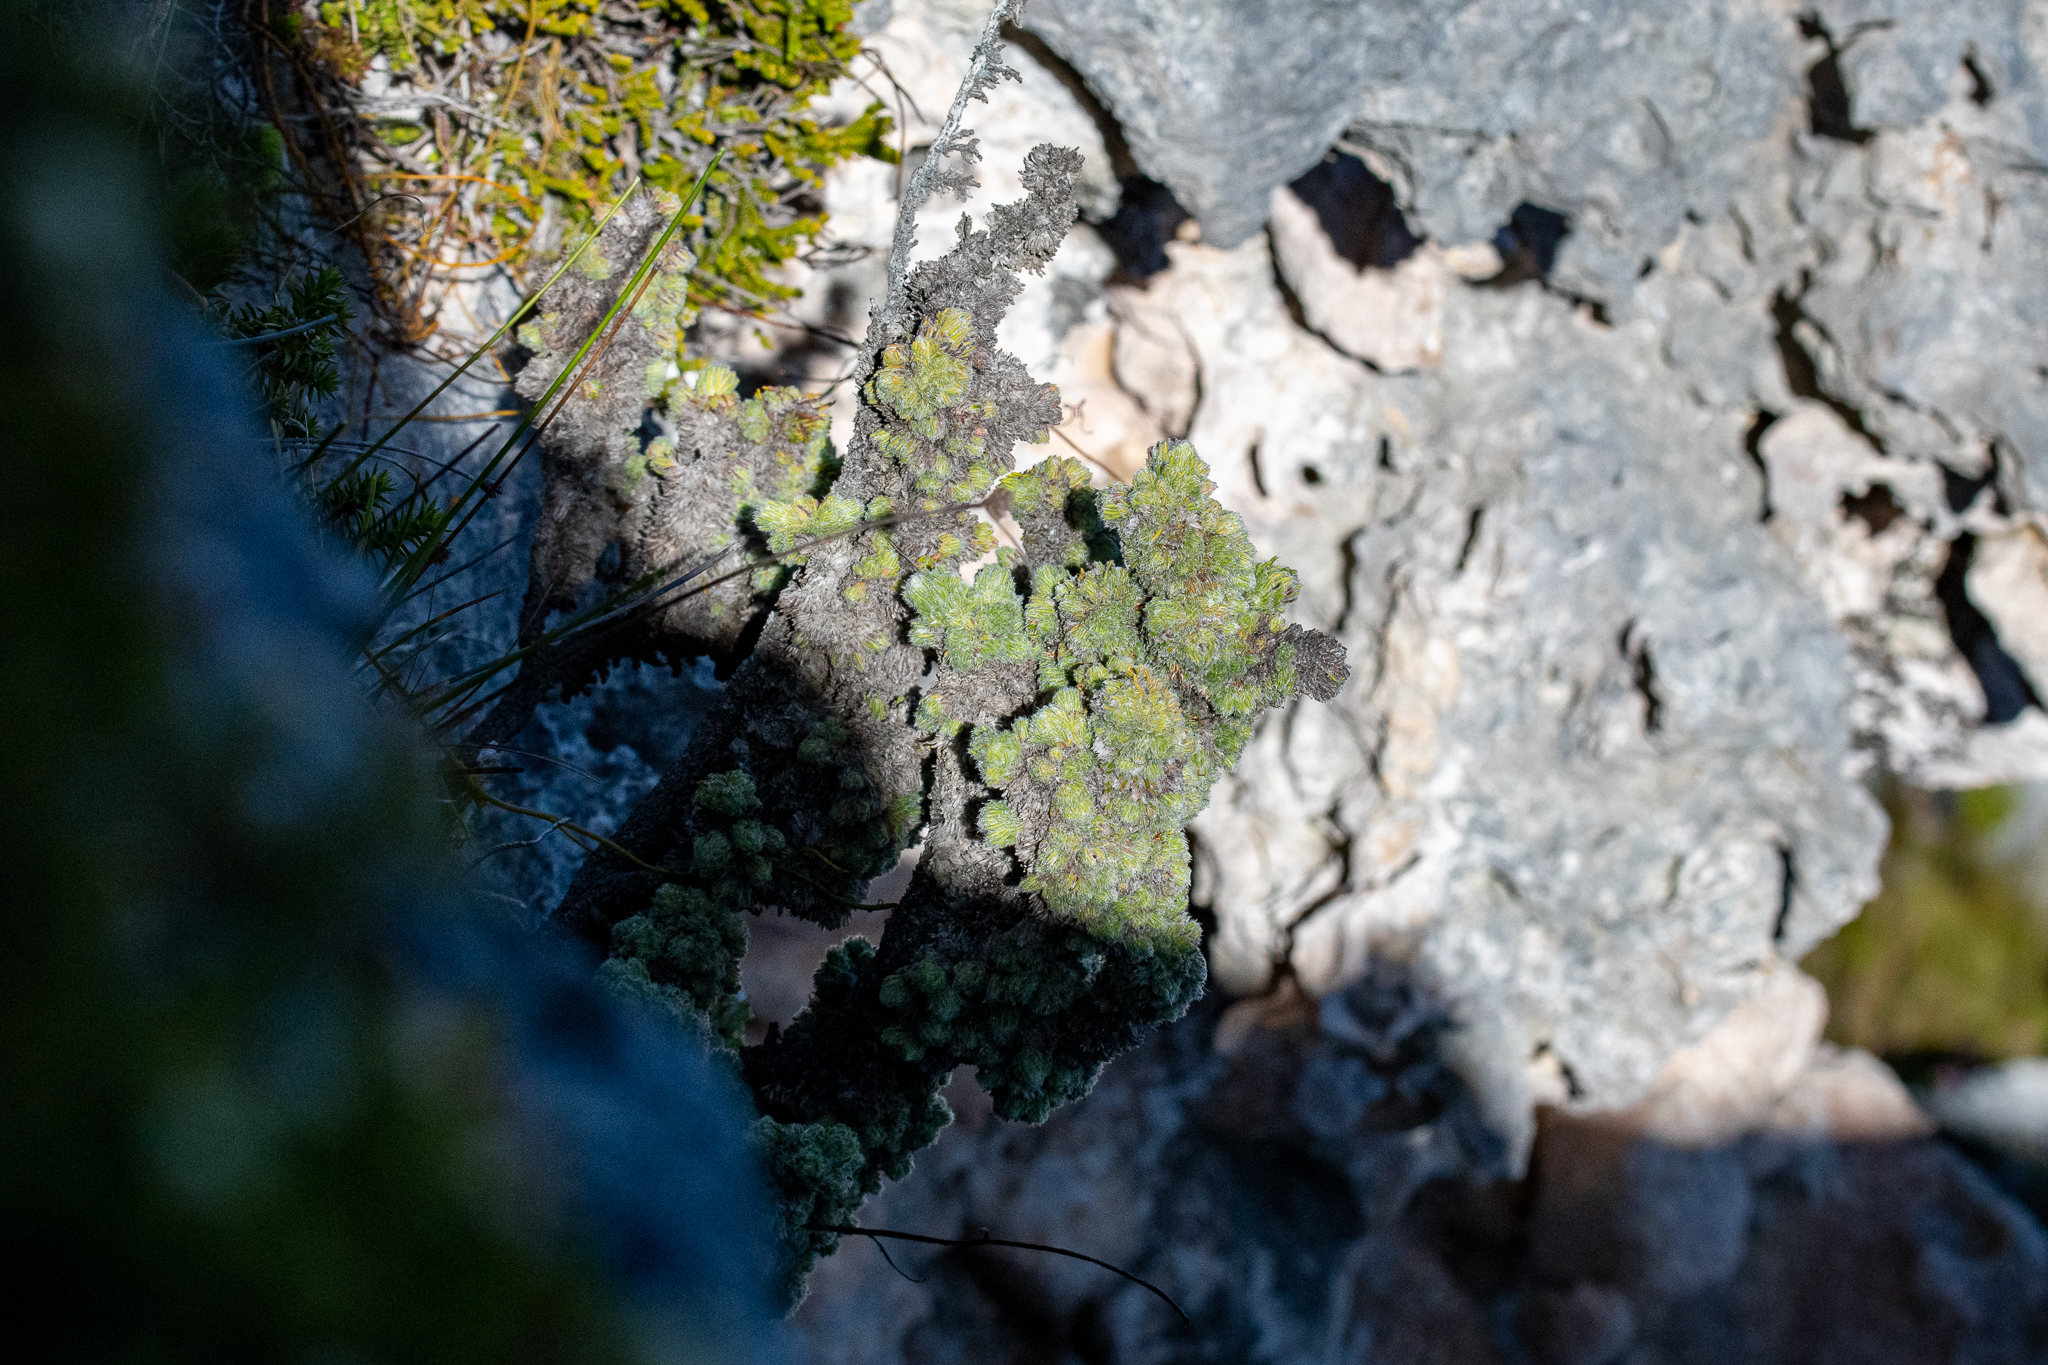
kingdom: Plantae
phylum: Tracheophyta
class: Magnoliopsida
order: Ericales
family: Ericaceae
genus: Erica
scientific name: Erica occulta
